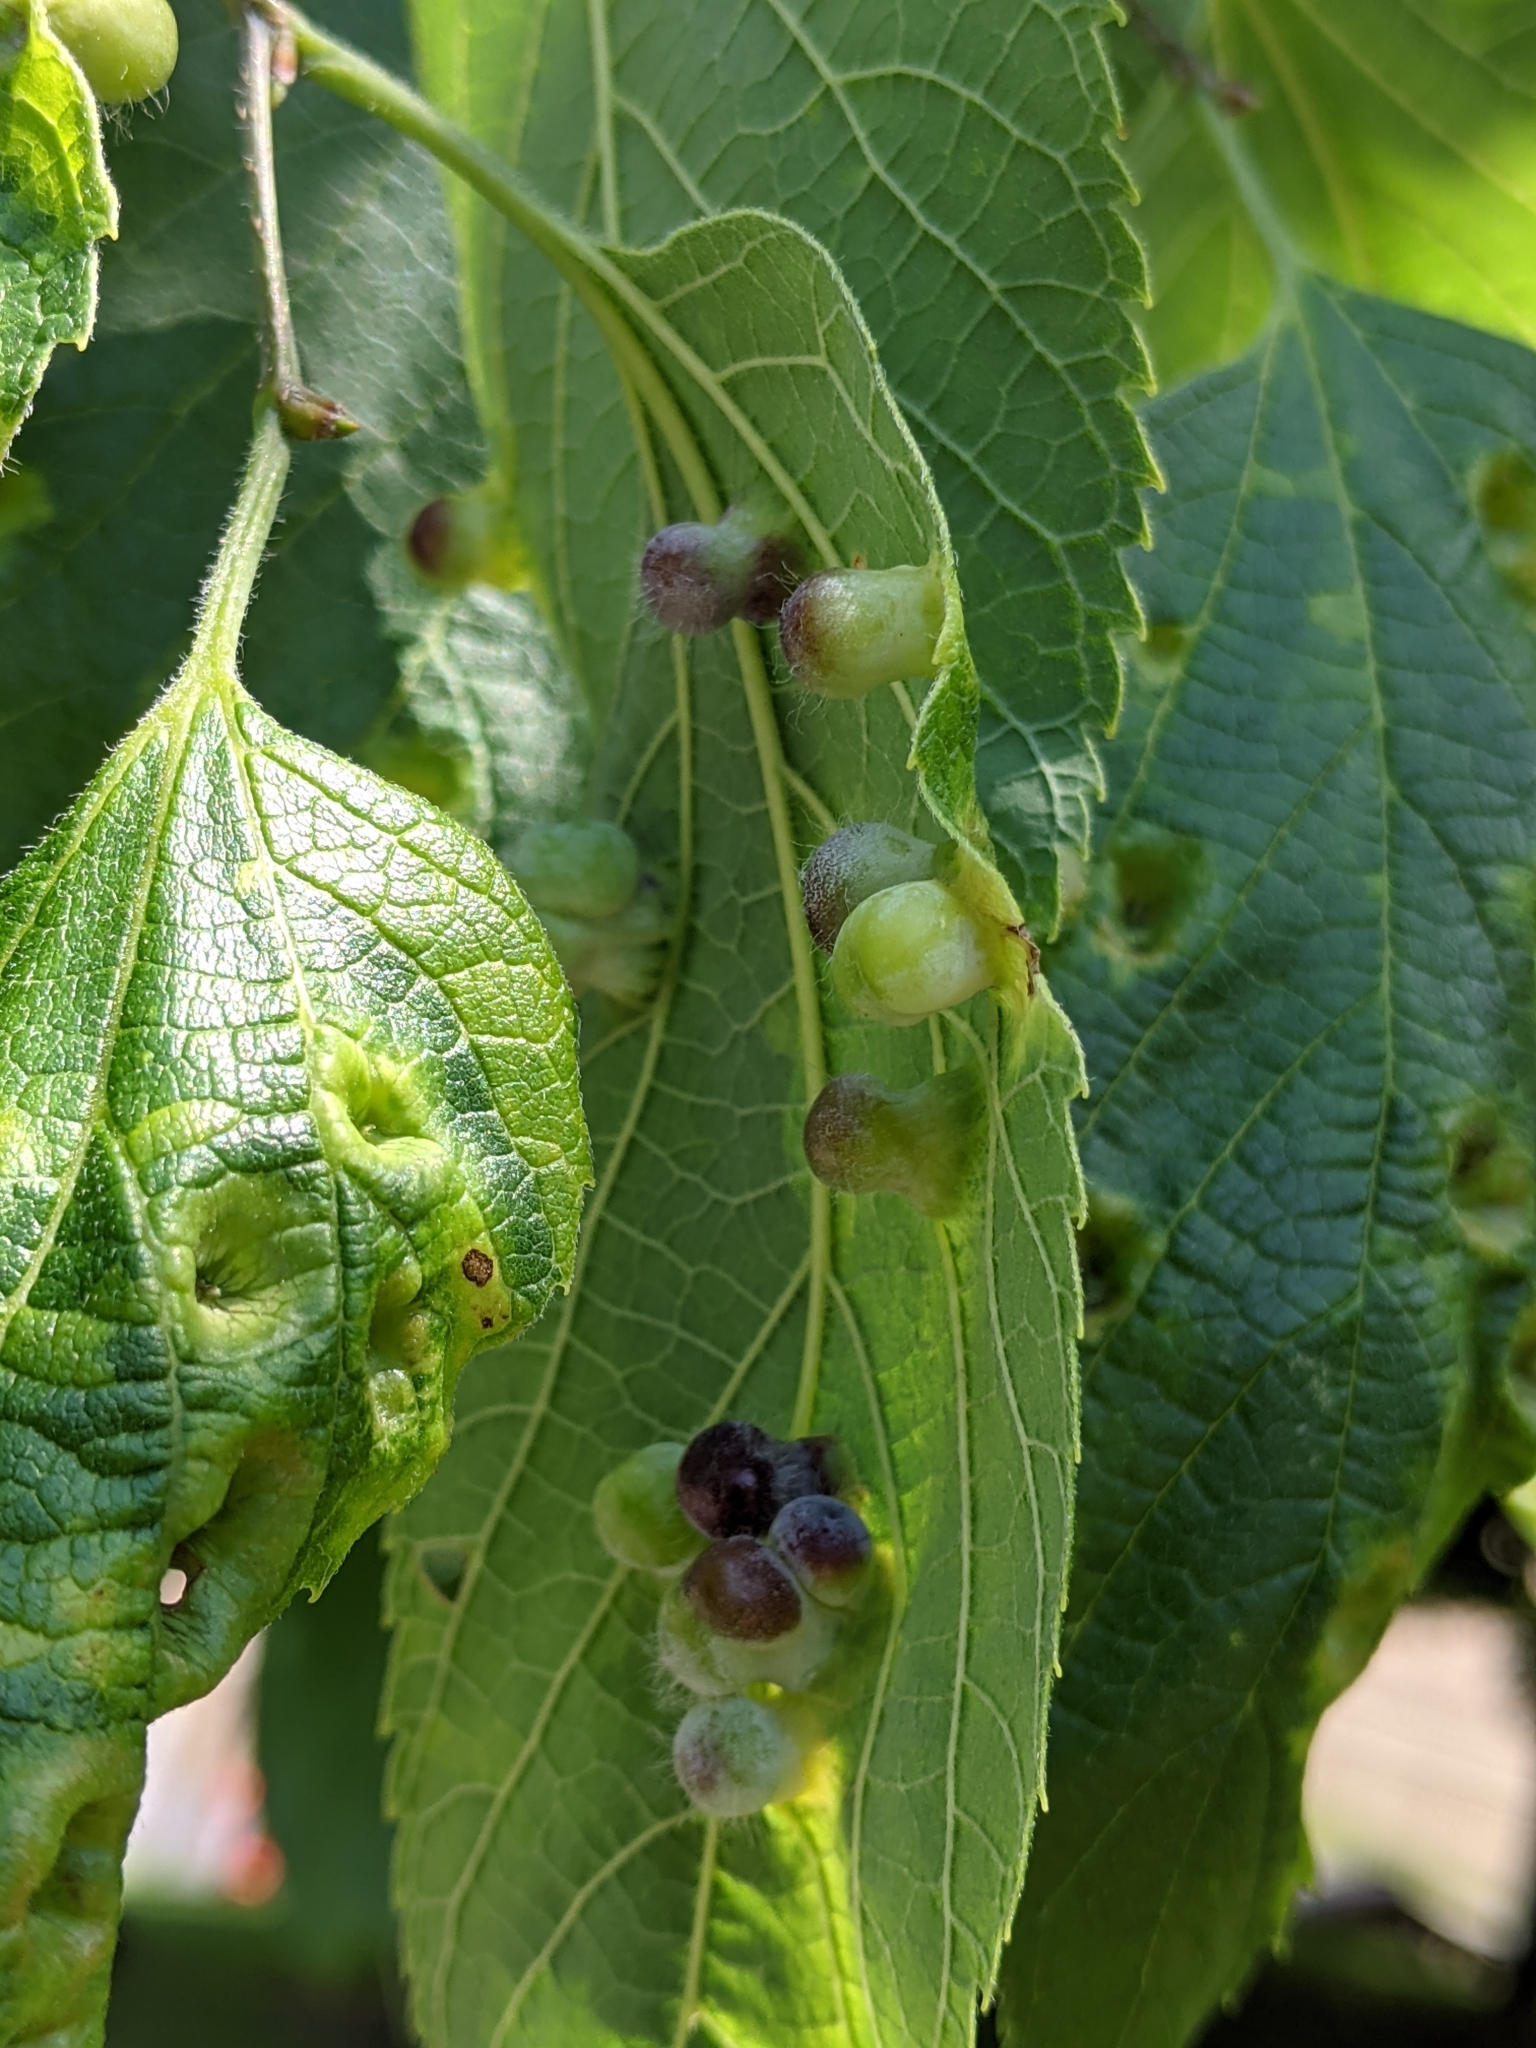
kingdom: Animalia
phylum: Arthropoda
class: Insecta
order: Hemiptera
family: Aphalaridae
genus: Pachypsylla
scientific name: Pachypsylla celtidismamma
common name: Hackberry nipplegall psyllid
